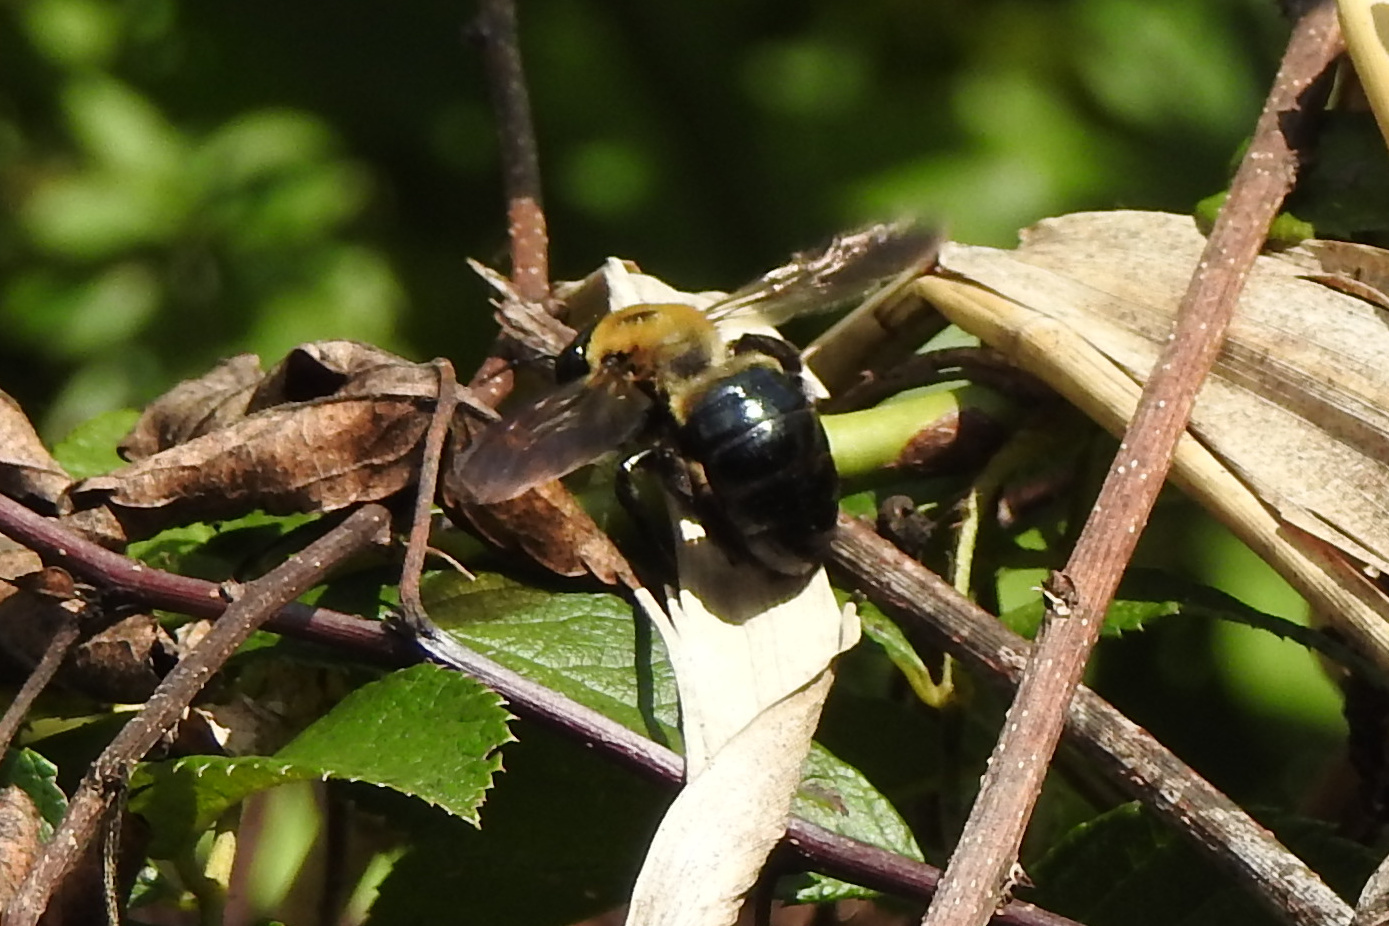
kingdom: Animalia
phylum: Arthropoda
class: Insecta
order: Hymenoptera
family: Apidae
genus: Xylocopa
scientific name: Xylocopa virginica
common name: Carpenter bee
